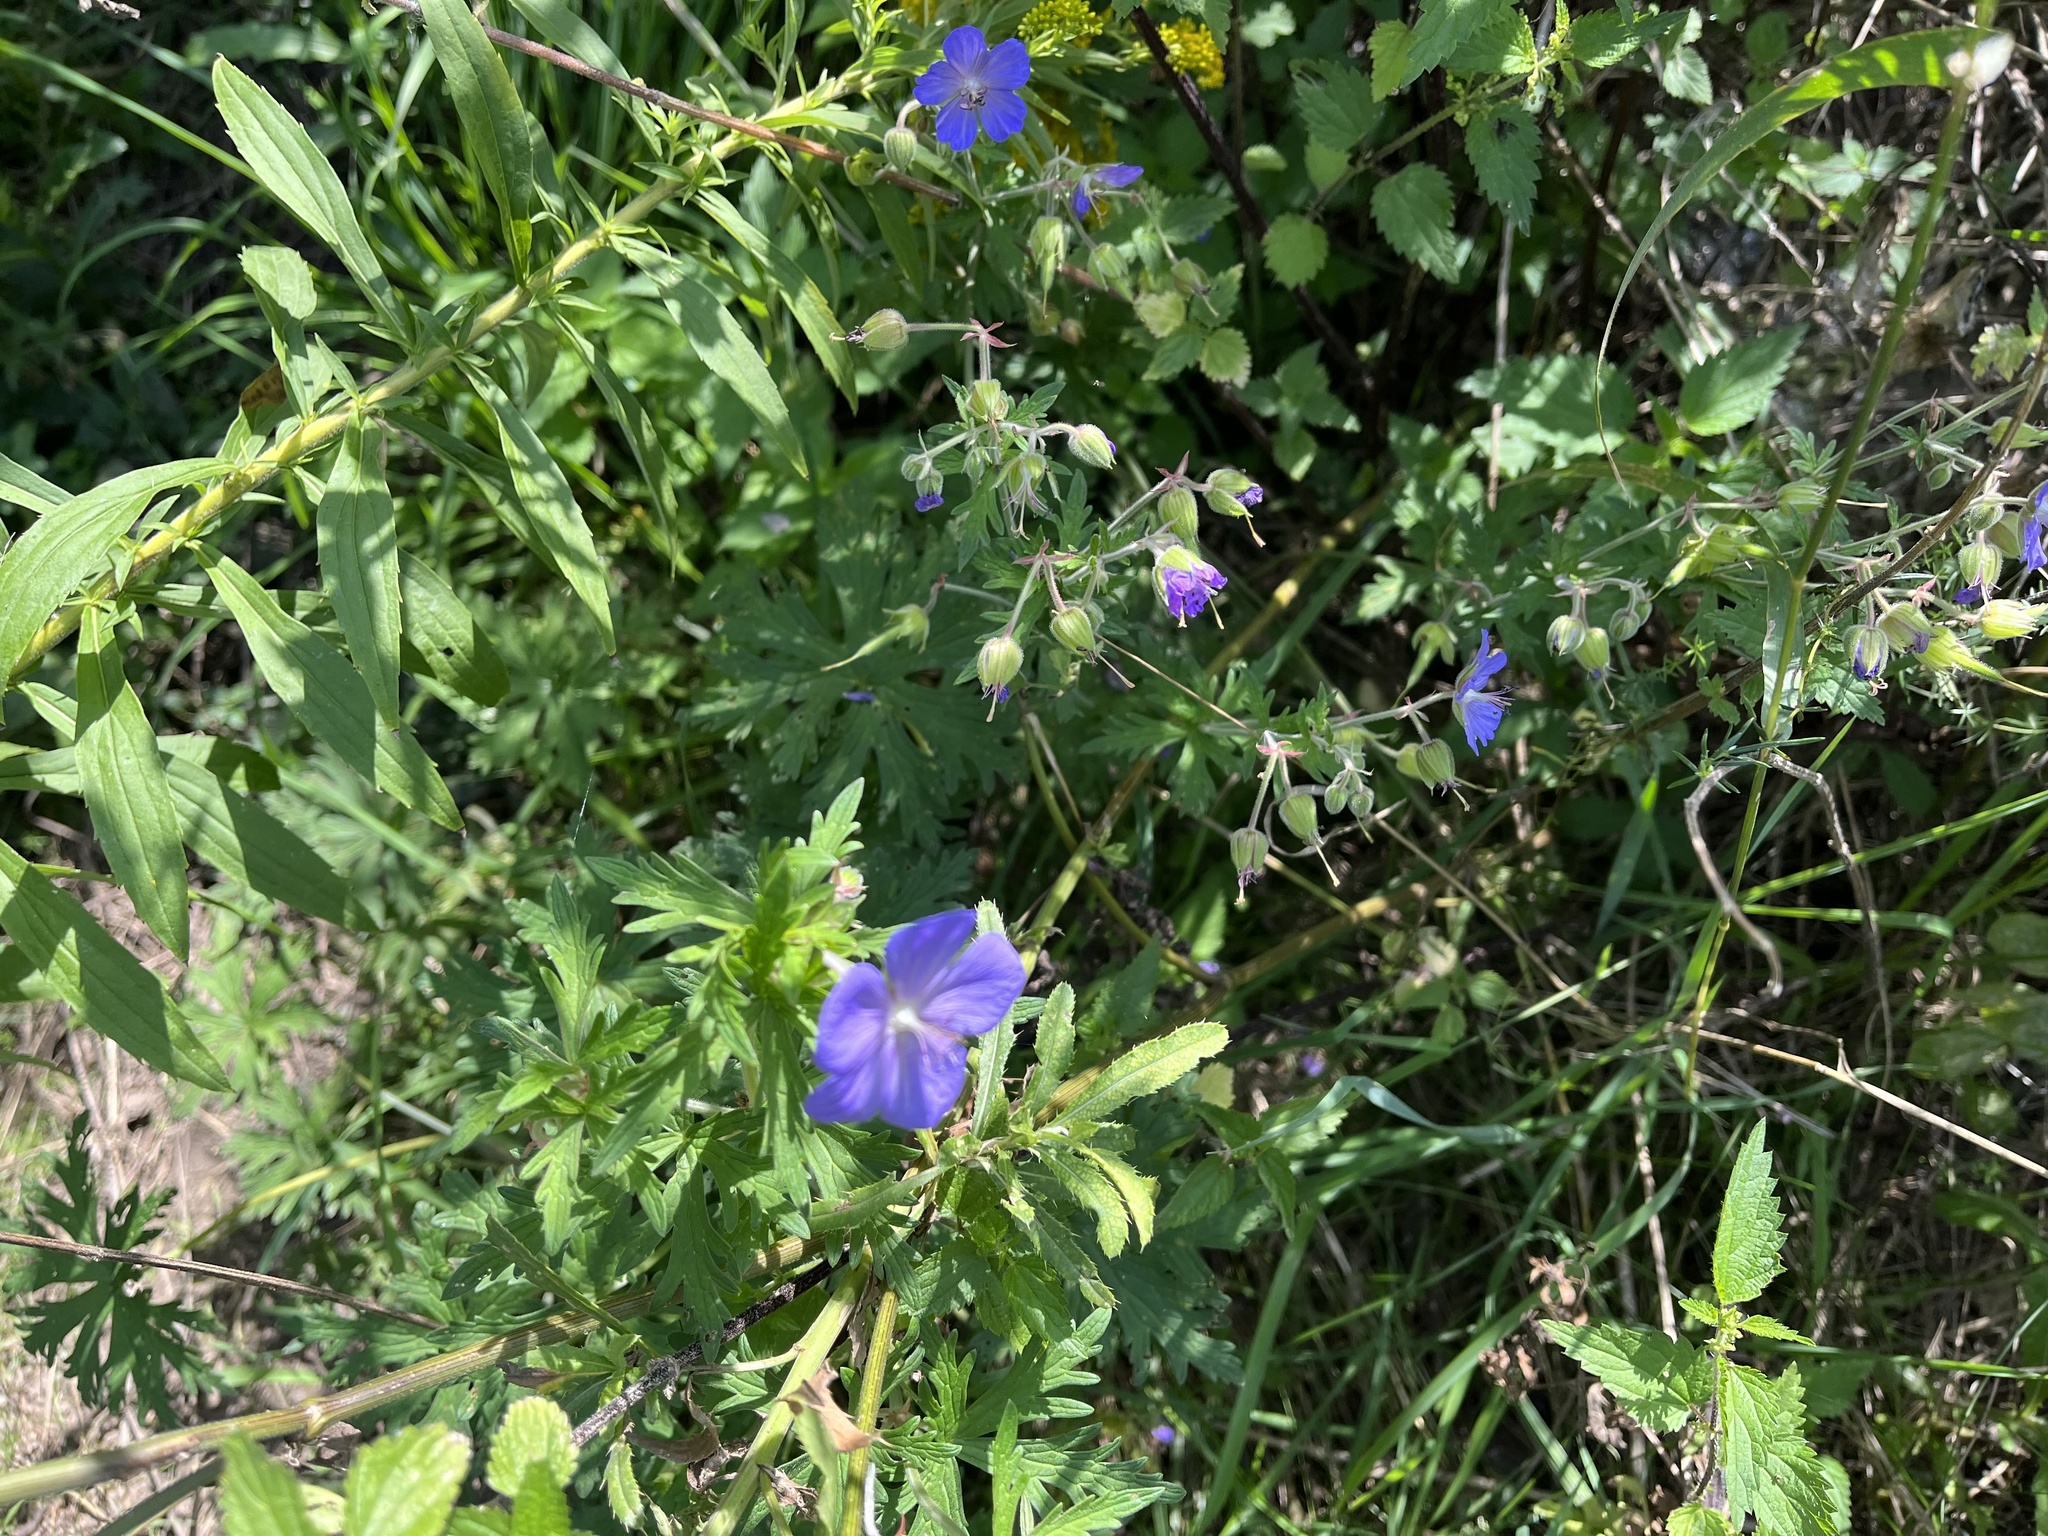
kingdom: Plantae
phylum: Tracheophyta
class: Magnoliopsida
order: Geraniales
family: Geraniaceae
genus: Geranium
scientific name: Geranium pratense
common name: Meadow crane's-bill
